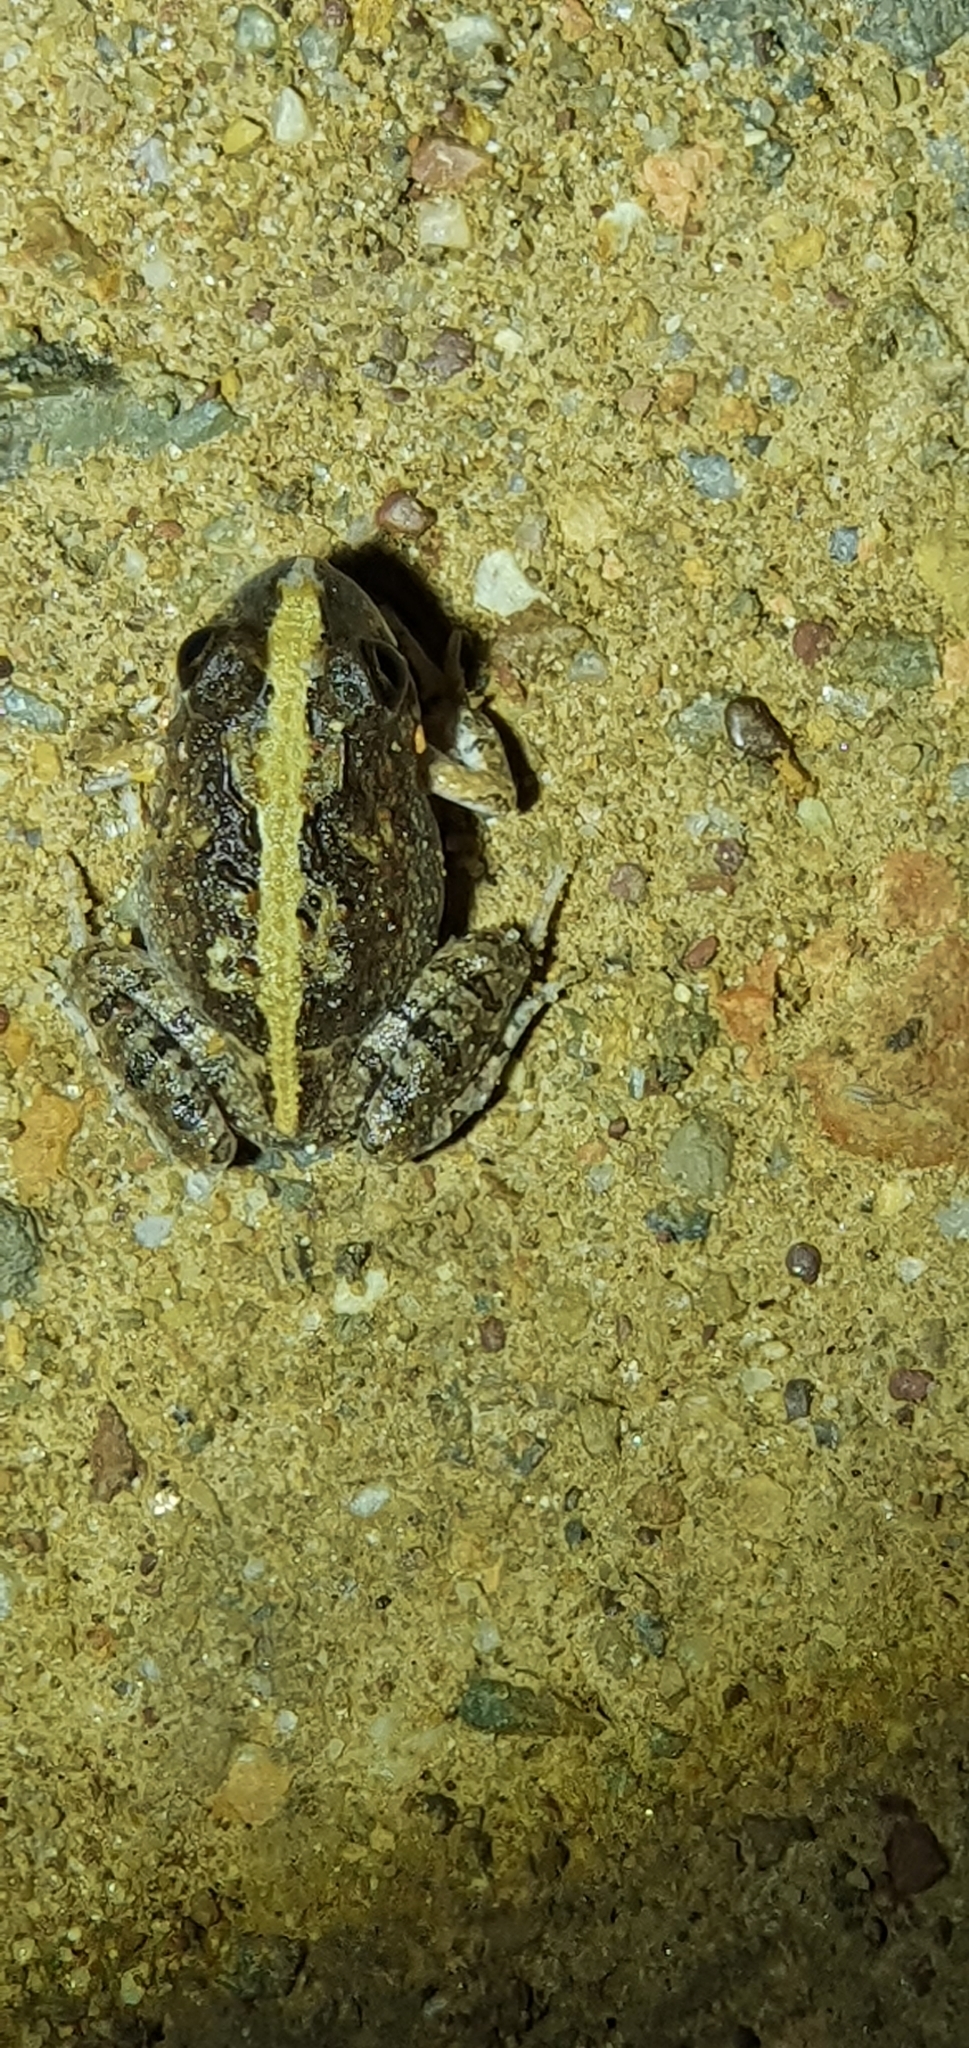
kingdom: Animalia
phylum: Chordata
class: Amphibia
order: Anura
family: Limnodynastidae
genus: Platyplectrum
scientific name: Platyplectrum ornatum
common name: Ornate burrowing frog
